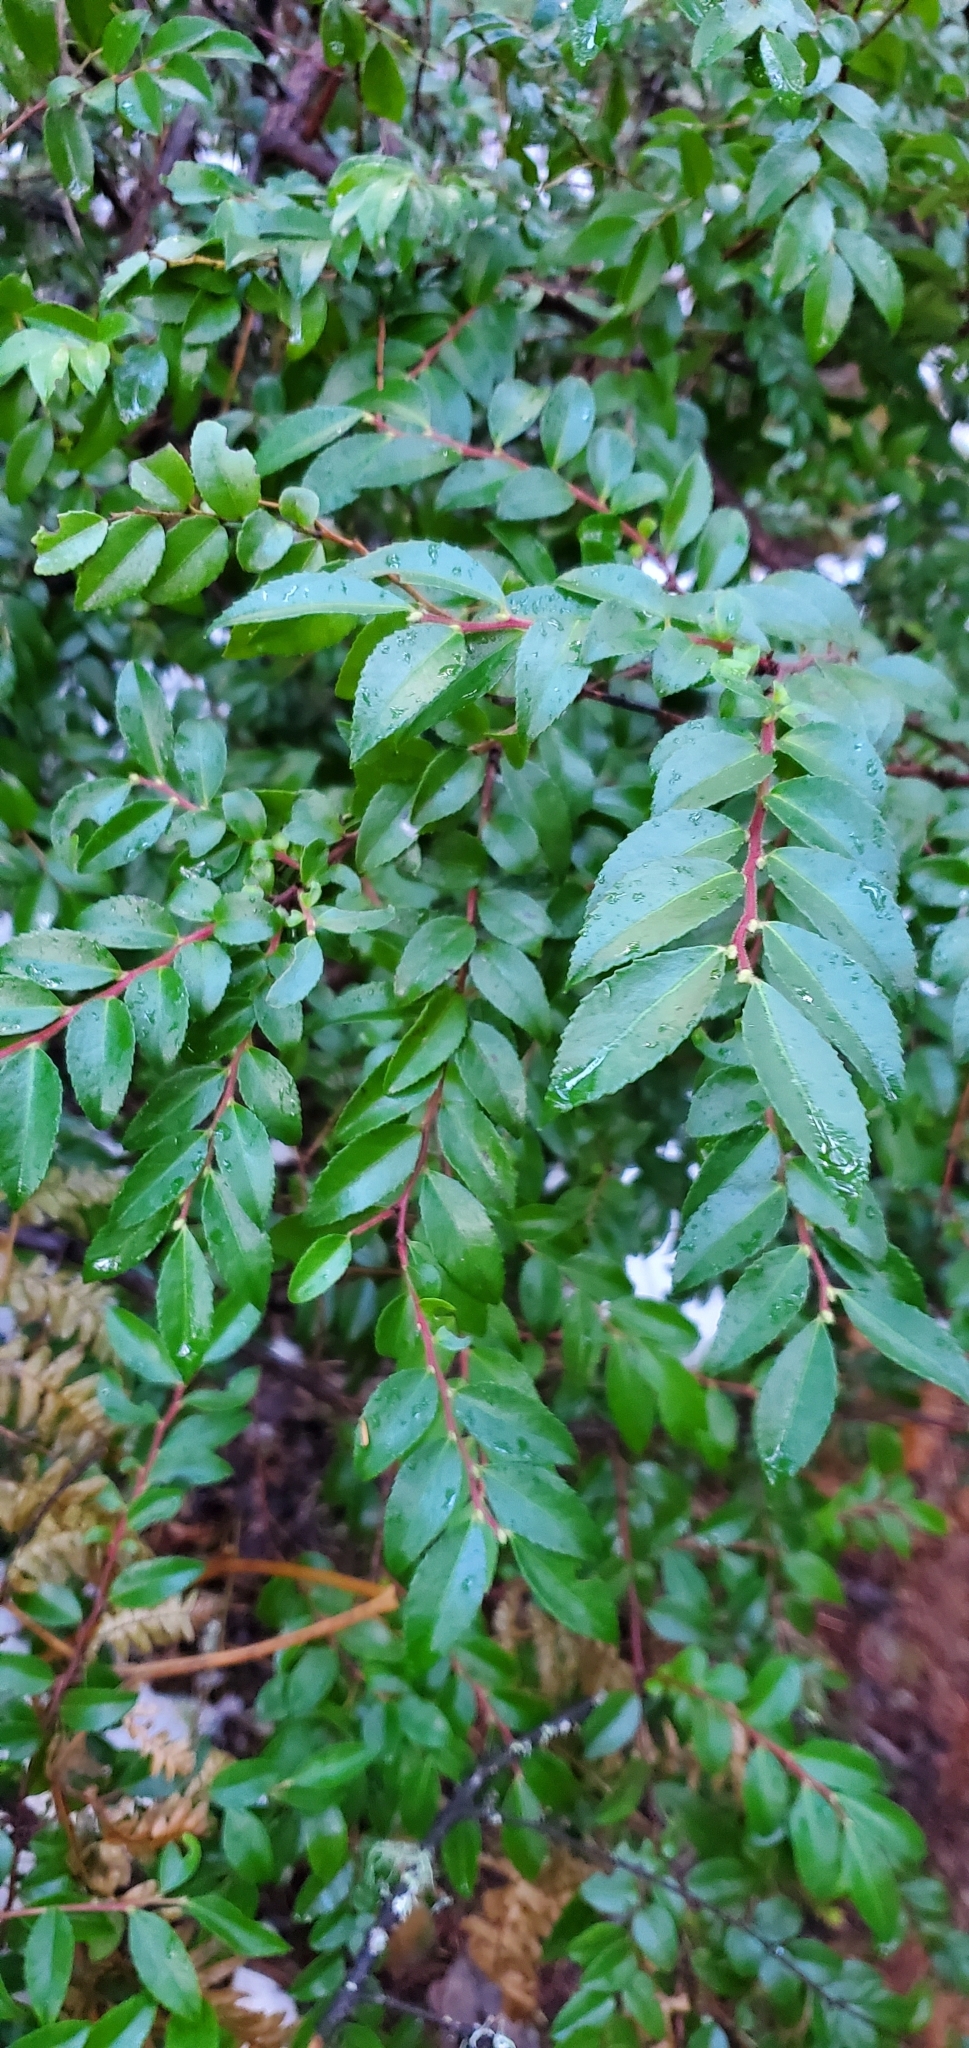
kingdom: Plantae
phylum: Tracheophyta
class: Magnoliopsida
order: Ericales
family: Ericaceae
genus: Vaccinium
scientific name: Vaccinium ovatum
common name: California-huckleberry
